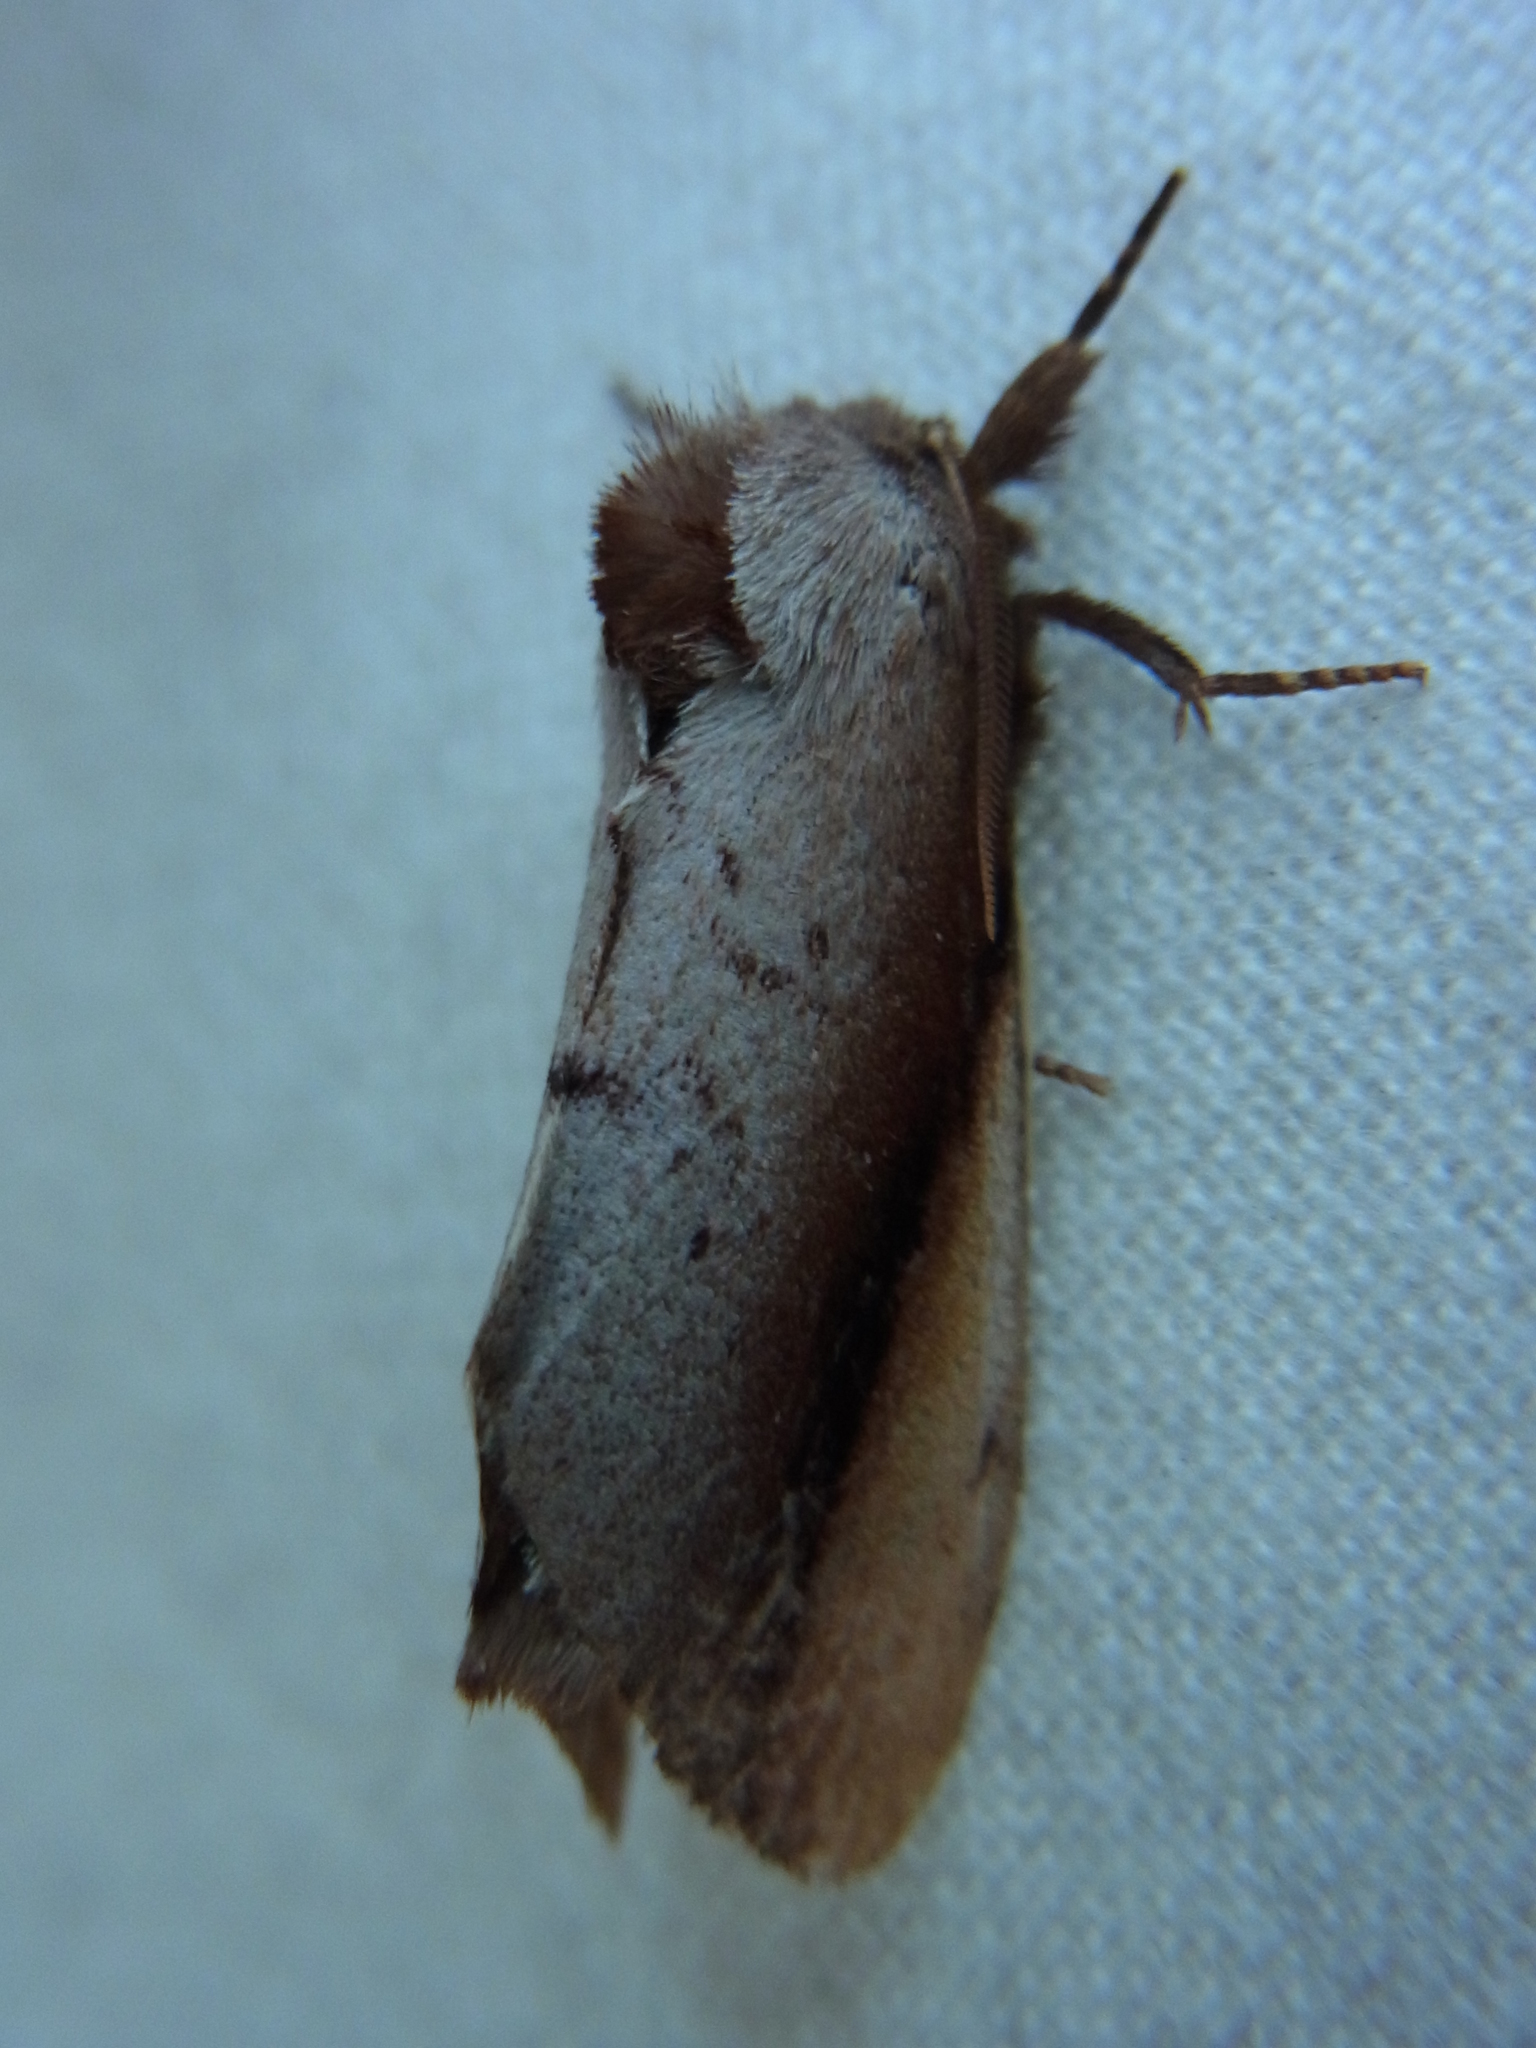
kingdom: Animalia
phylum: Arthropoda
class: Insecta
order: Lepidoptera
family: Notodontidae
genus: Togepteryx
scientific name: Togepteryx velutina
